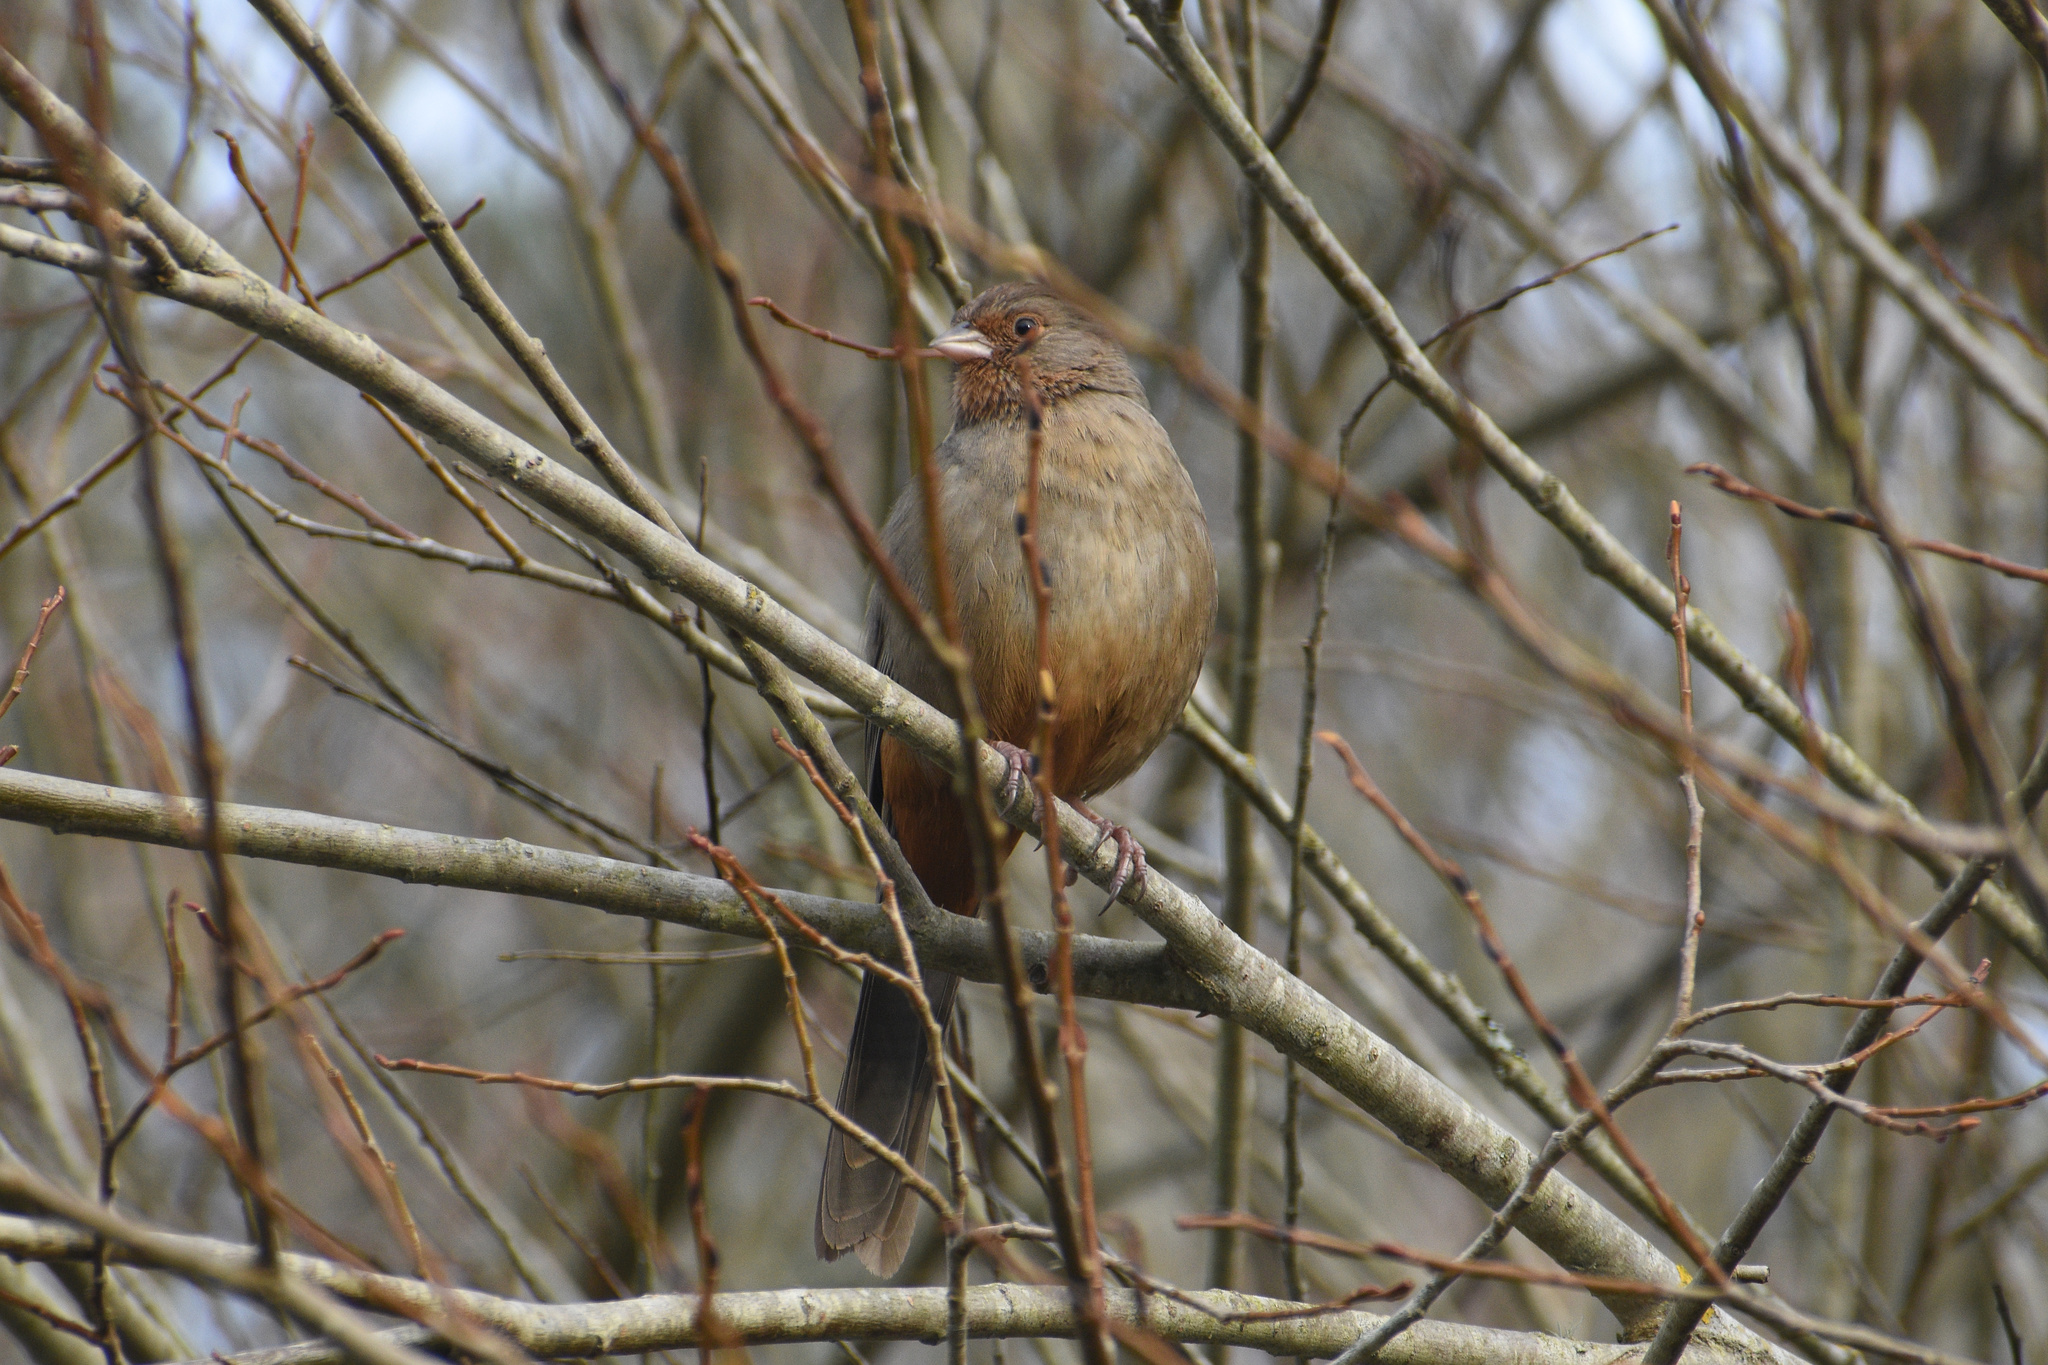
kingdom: Animalia
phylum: Chordata
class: Aves
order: Passeriformes
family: Passerellidae
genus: Melozone
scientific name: Melozone crissalis
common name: California towhee
